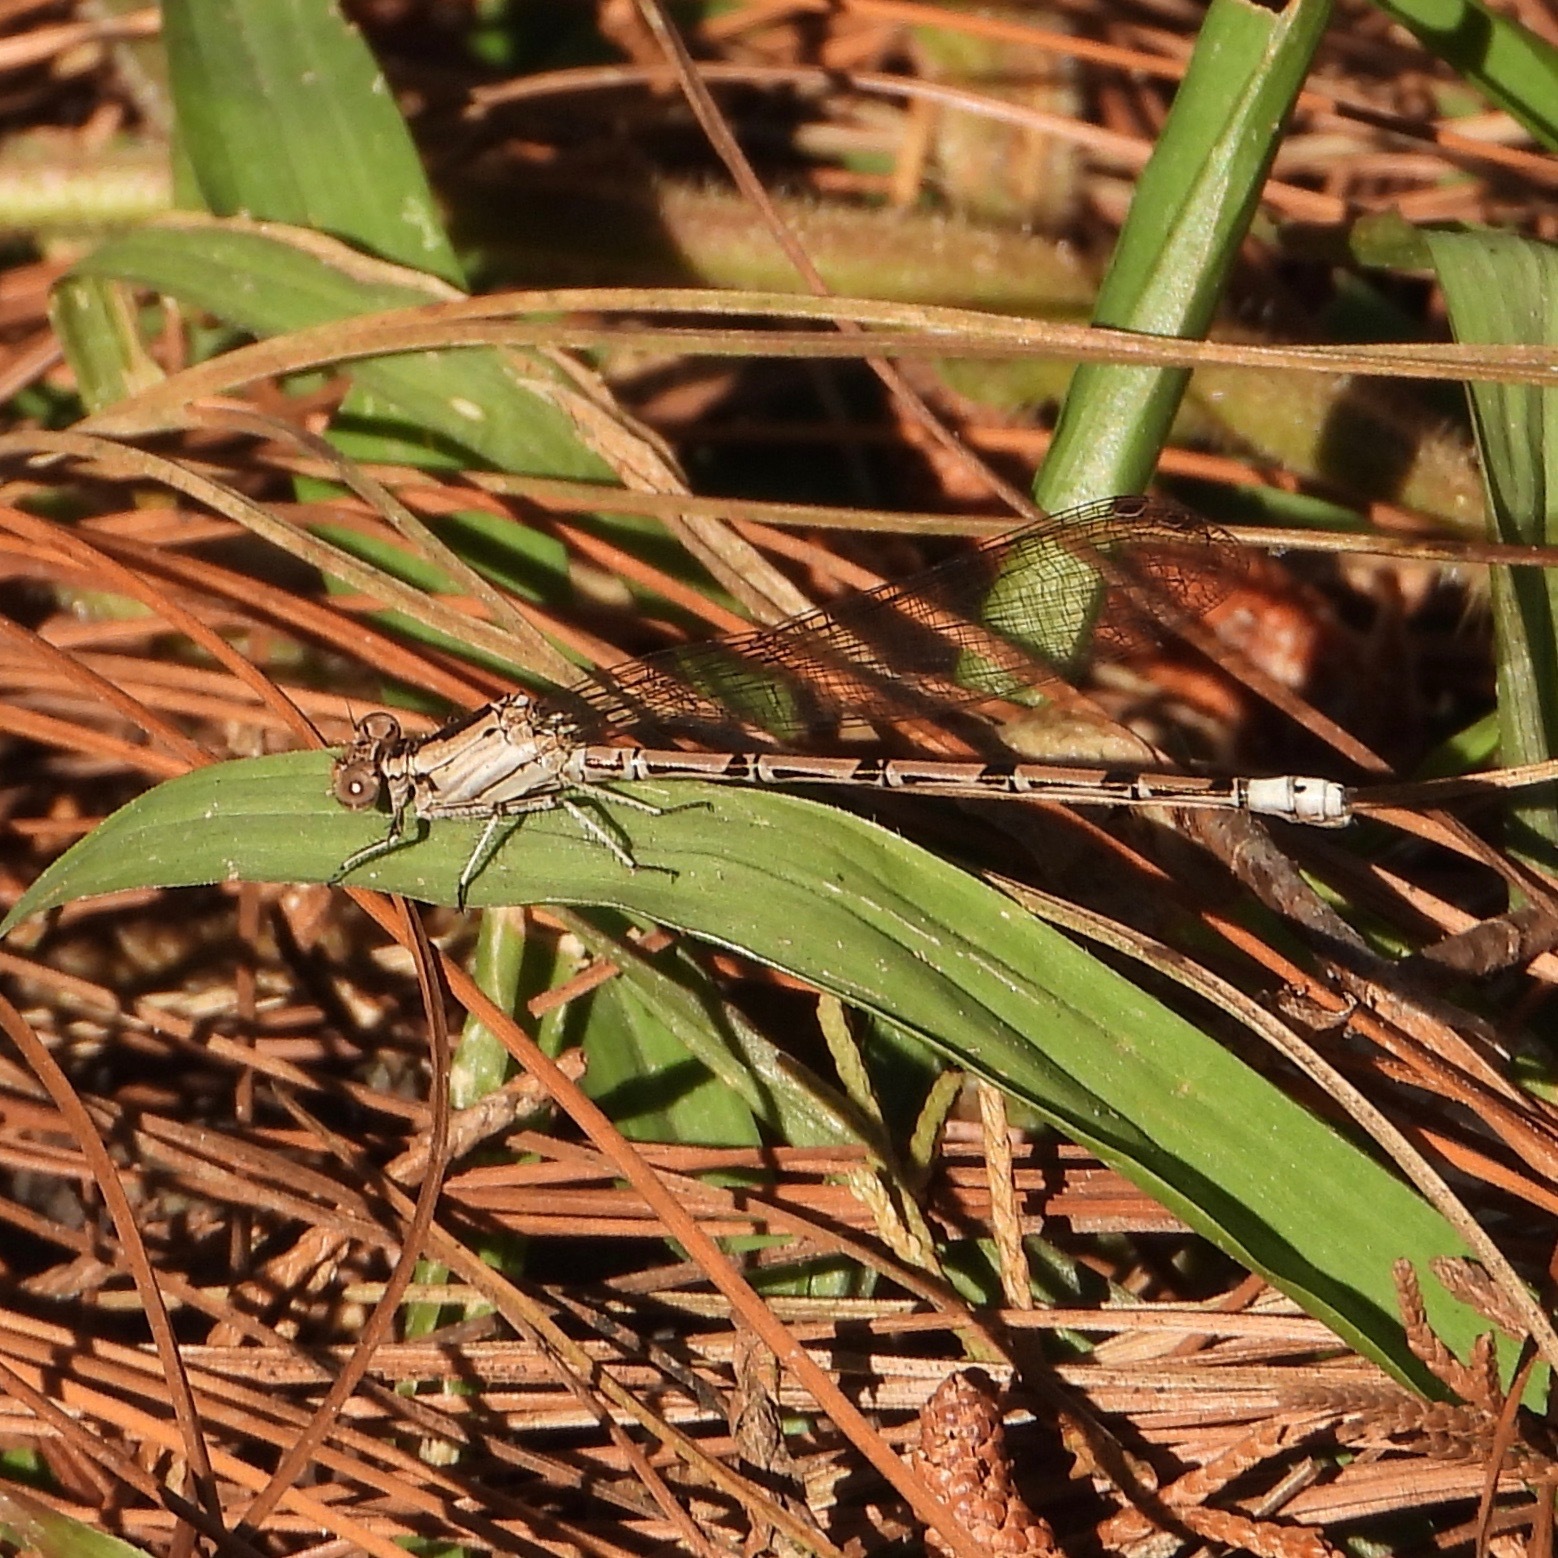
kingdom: Animalia
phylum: Arthropoda
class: Insecta
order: Odonata
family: Coenagrionidae
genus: Argia
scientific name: Argia elongata
